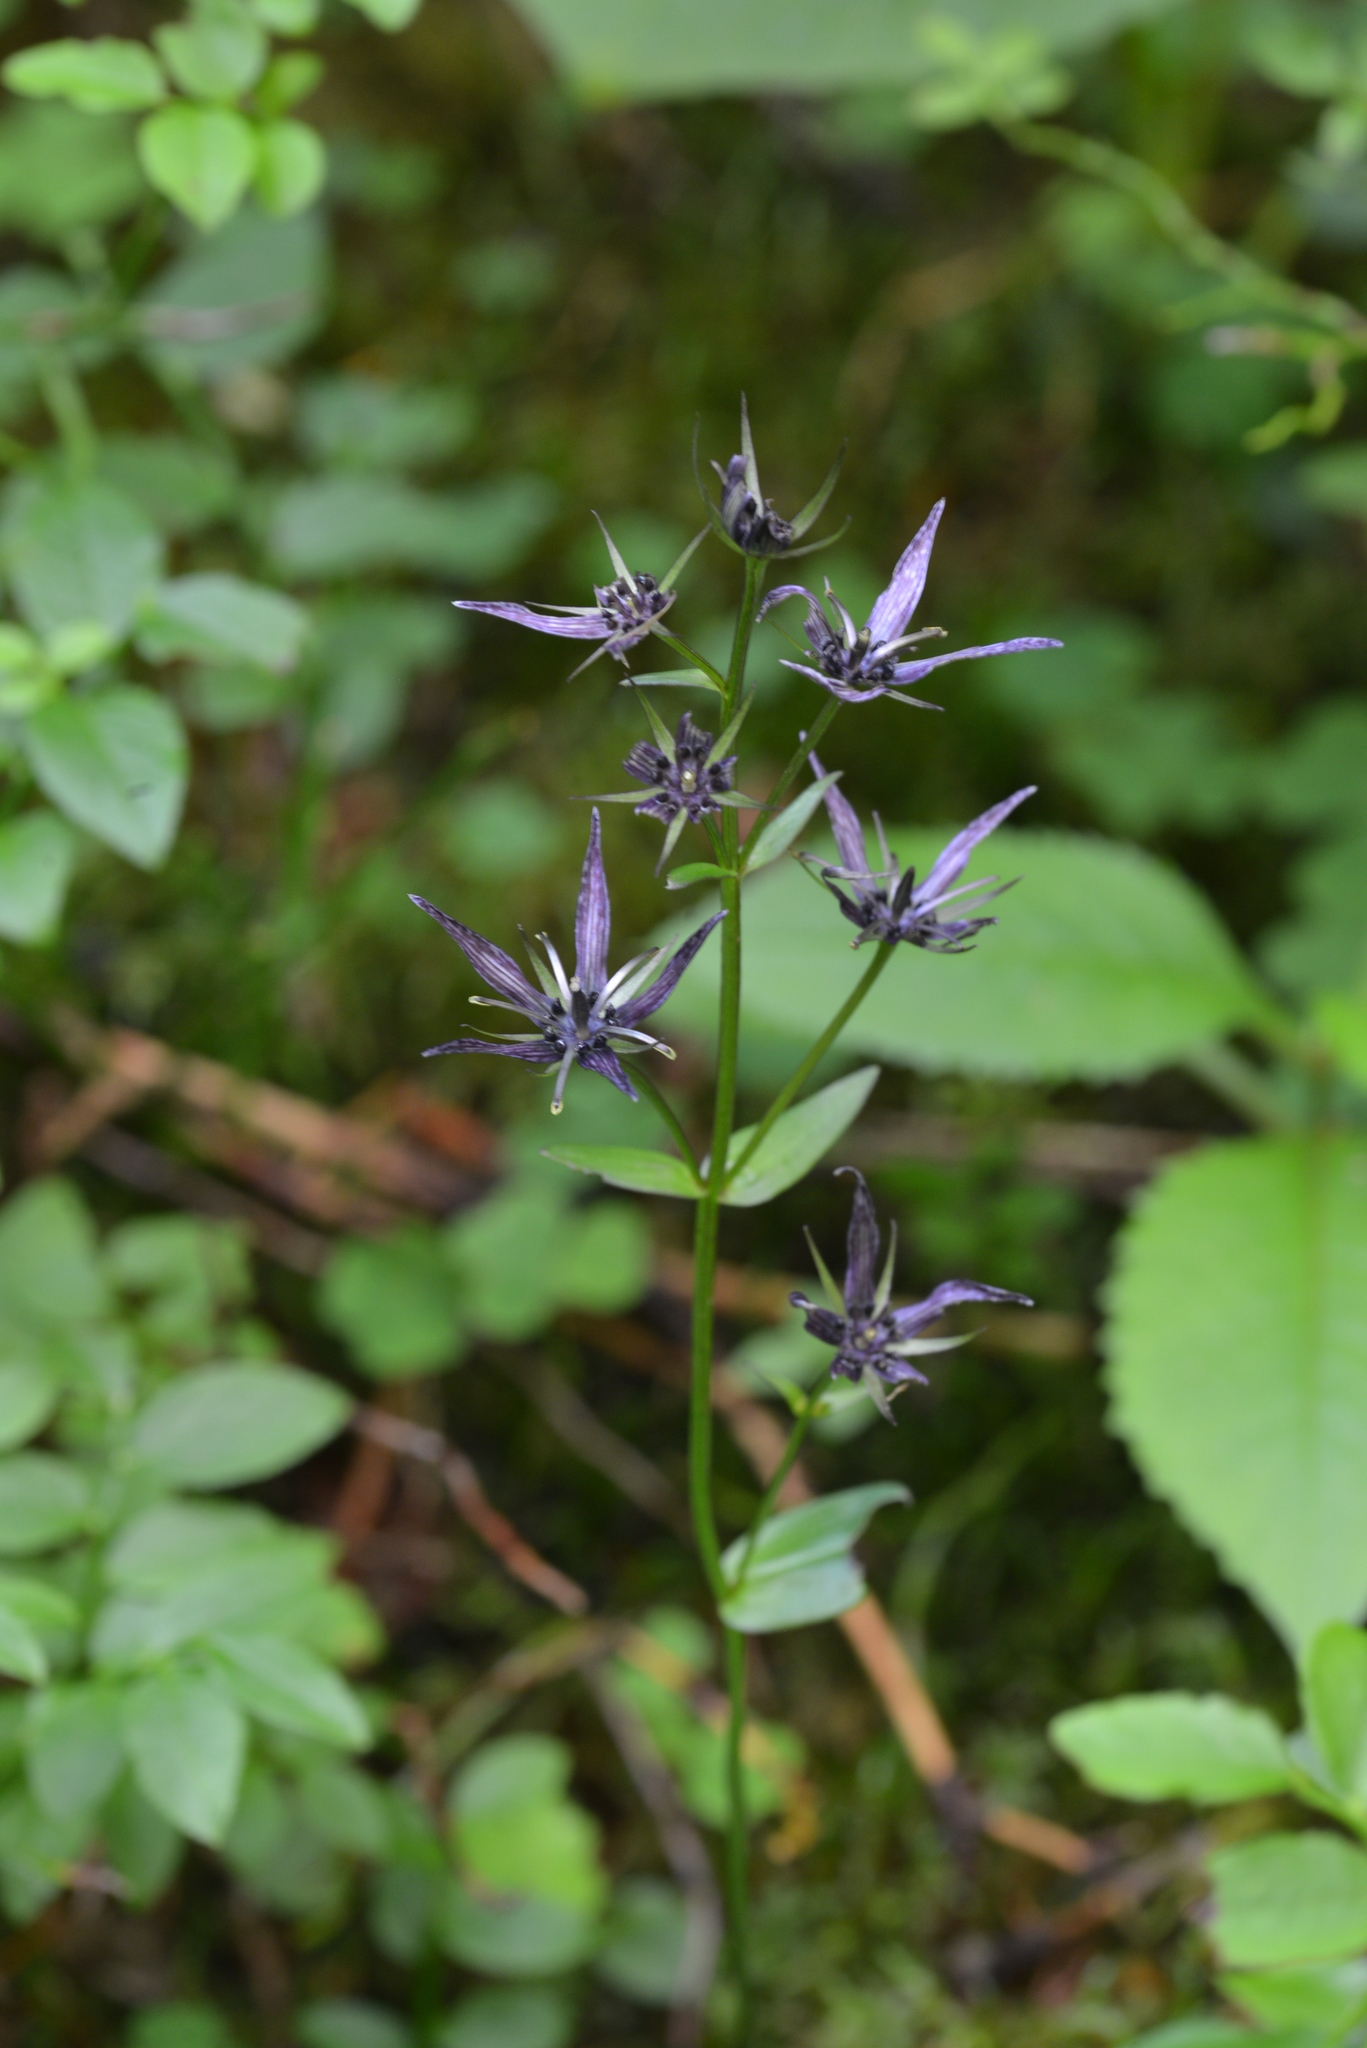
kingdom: Plantae
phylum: Tracheophyta
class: Magnoliopsida
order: Gentianales
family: Gentianaceae
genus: Swertia
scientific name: Swertia perennis
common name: Alpine bog swertia
